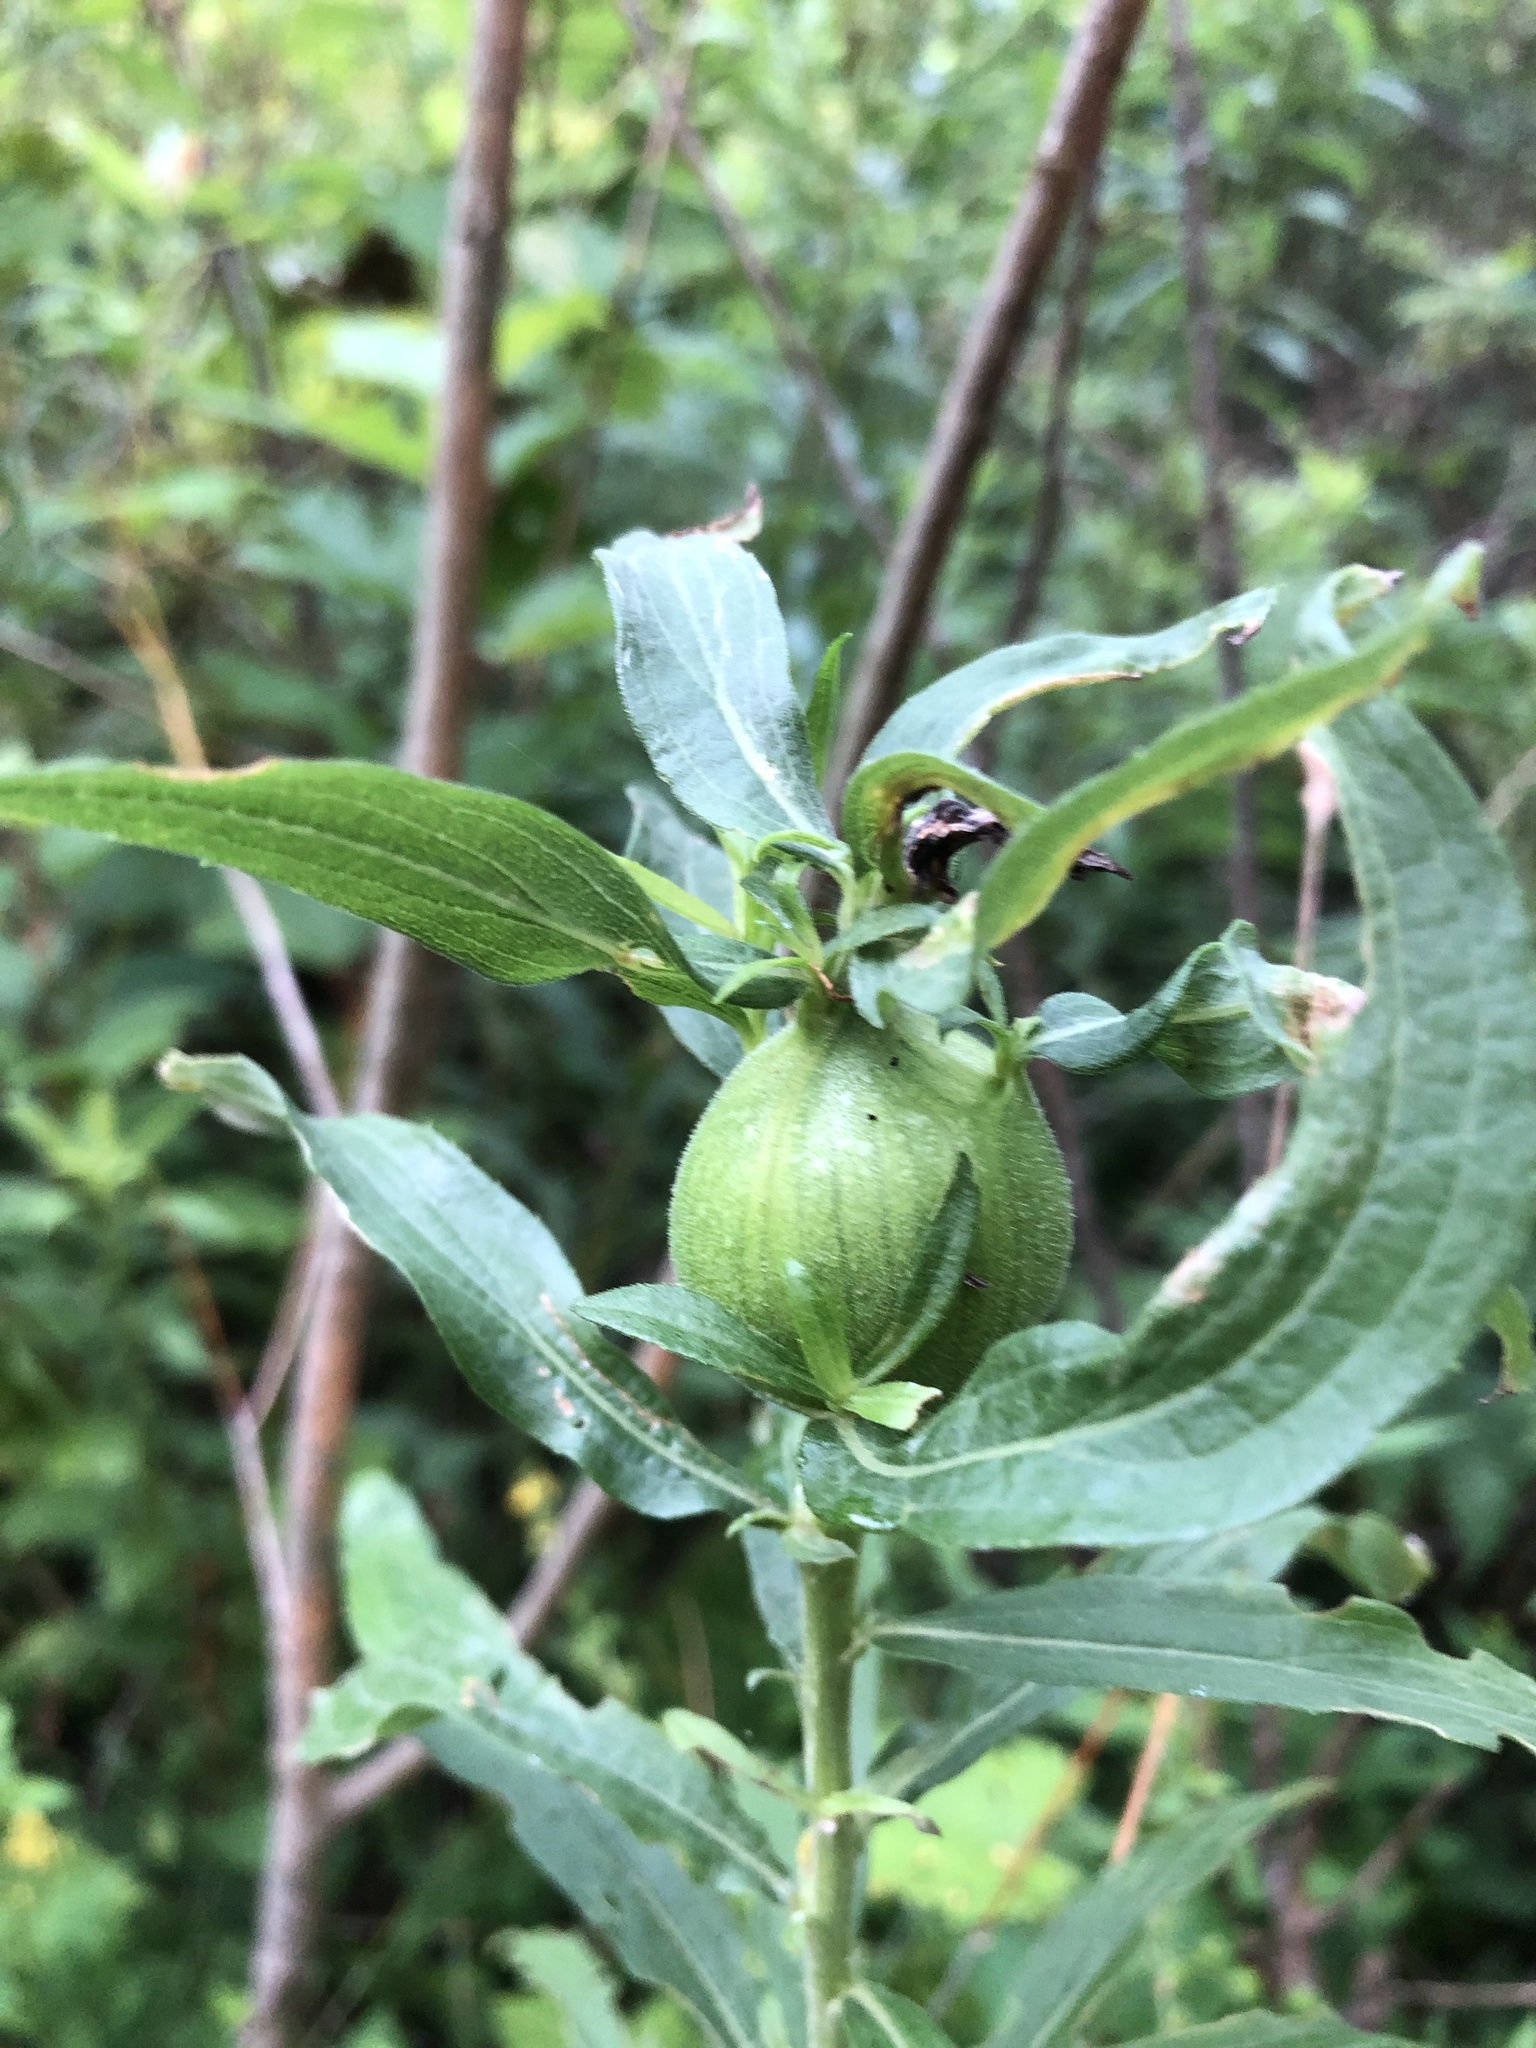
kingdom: Animalia
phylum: Arthropoda
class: Insecta
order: Diptera
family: Tephritidae
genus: Eurosta
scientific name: Eurosta solidaginis
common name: Goldenrod gall fly
